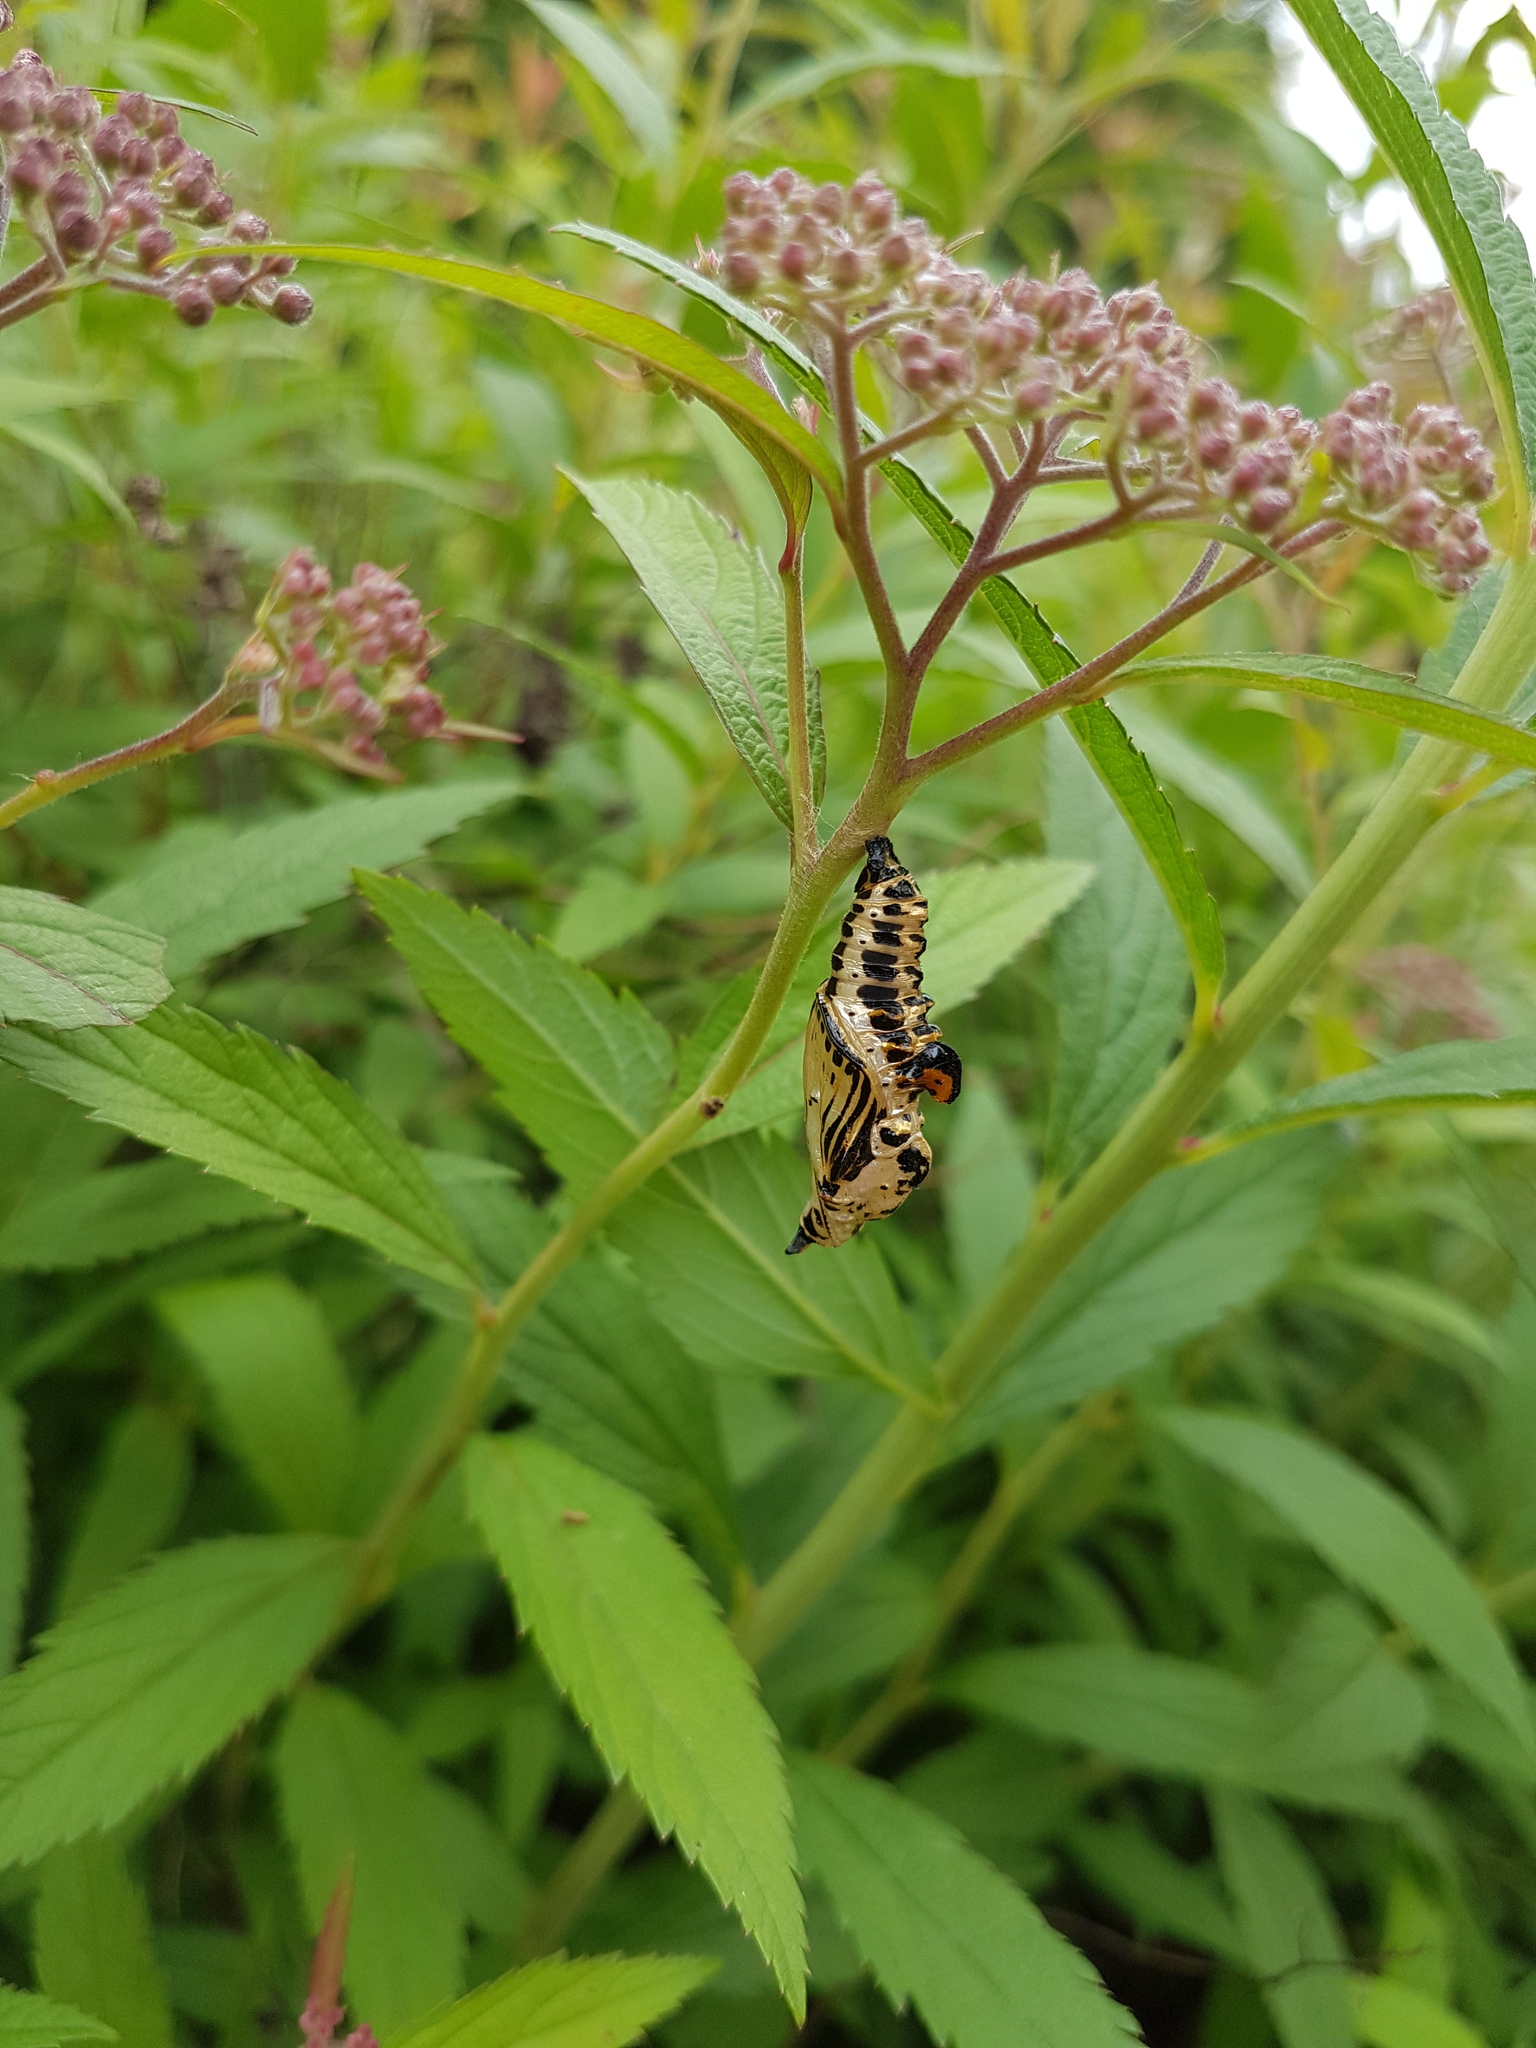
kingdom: Animalia
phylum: Arthropoda
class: Insecta
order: Lepidoptera
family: Nymphalidae
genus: Limenitis
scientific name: Limenitis sydyi
